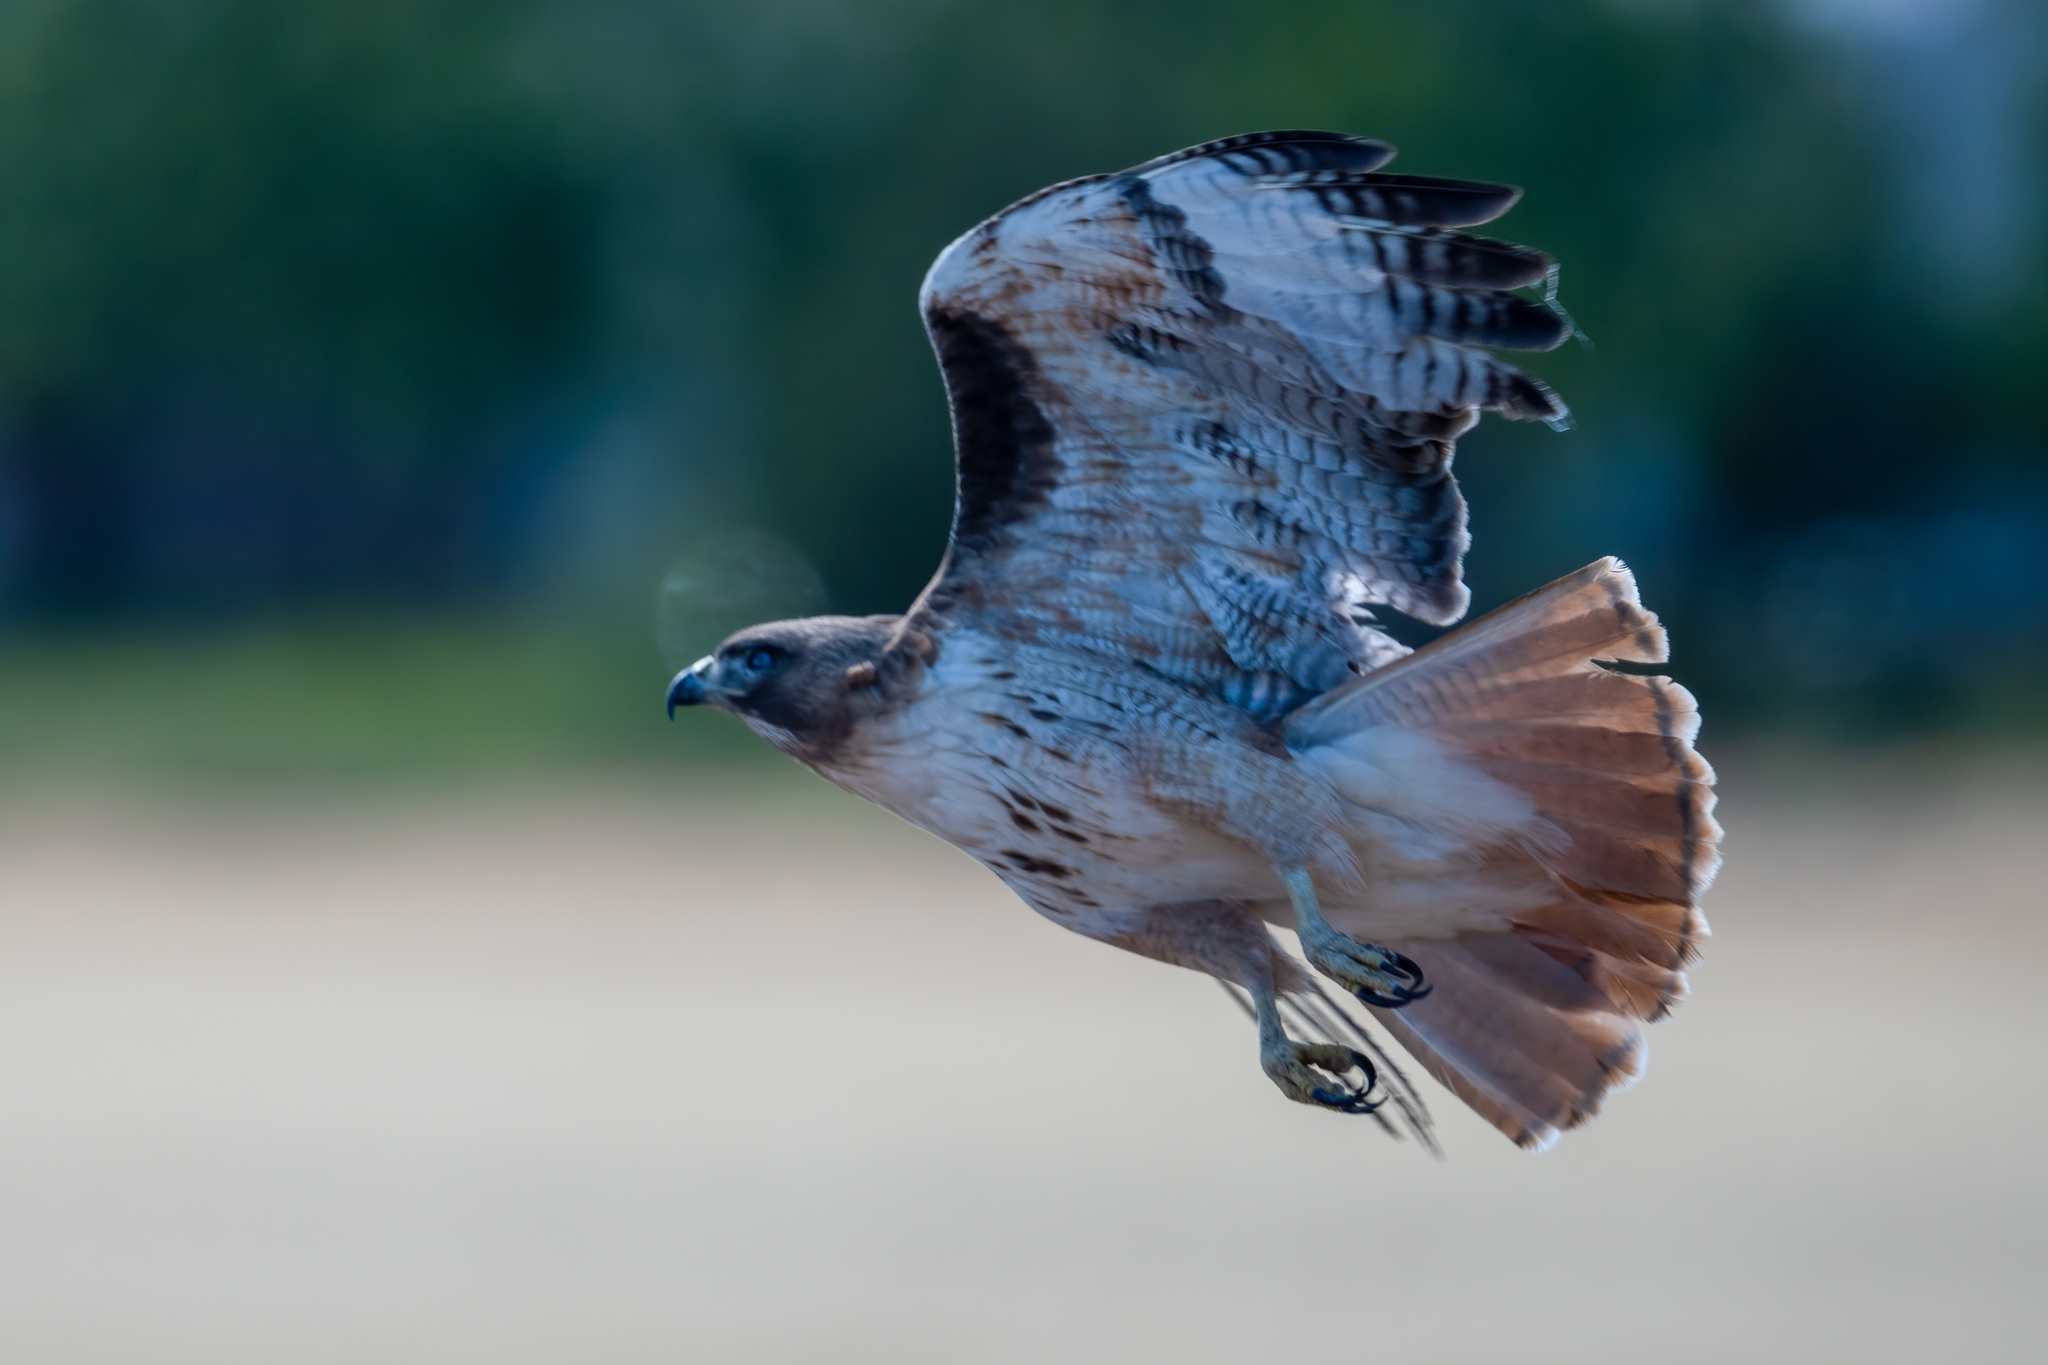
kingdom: Animalia
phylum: Chordata
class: Aves
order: Accipitriformes
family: Accipitridae
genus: Buteo
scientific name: Buteo jamaicensis
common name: Red-tailed hawk
